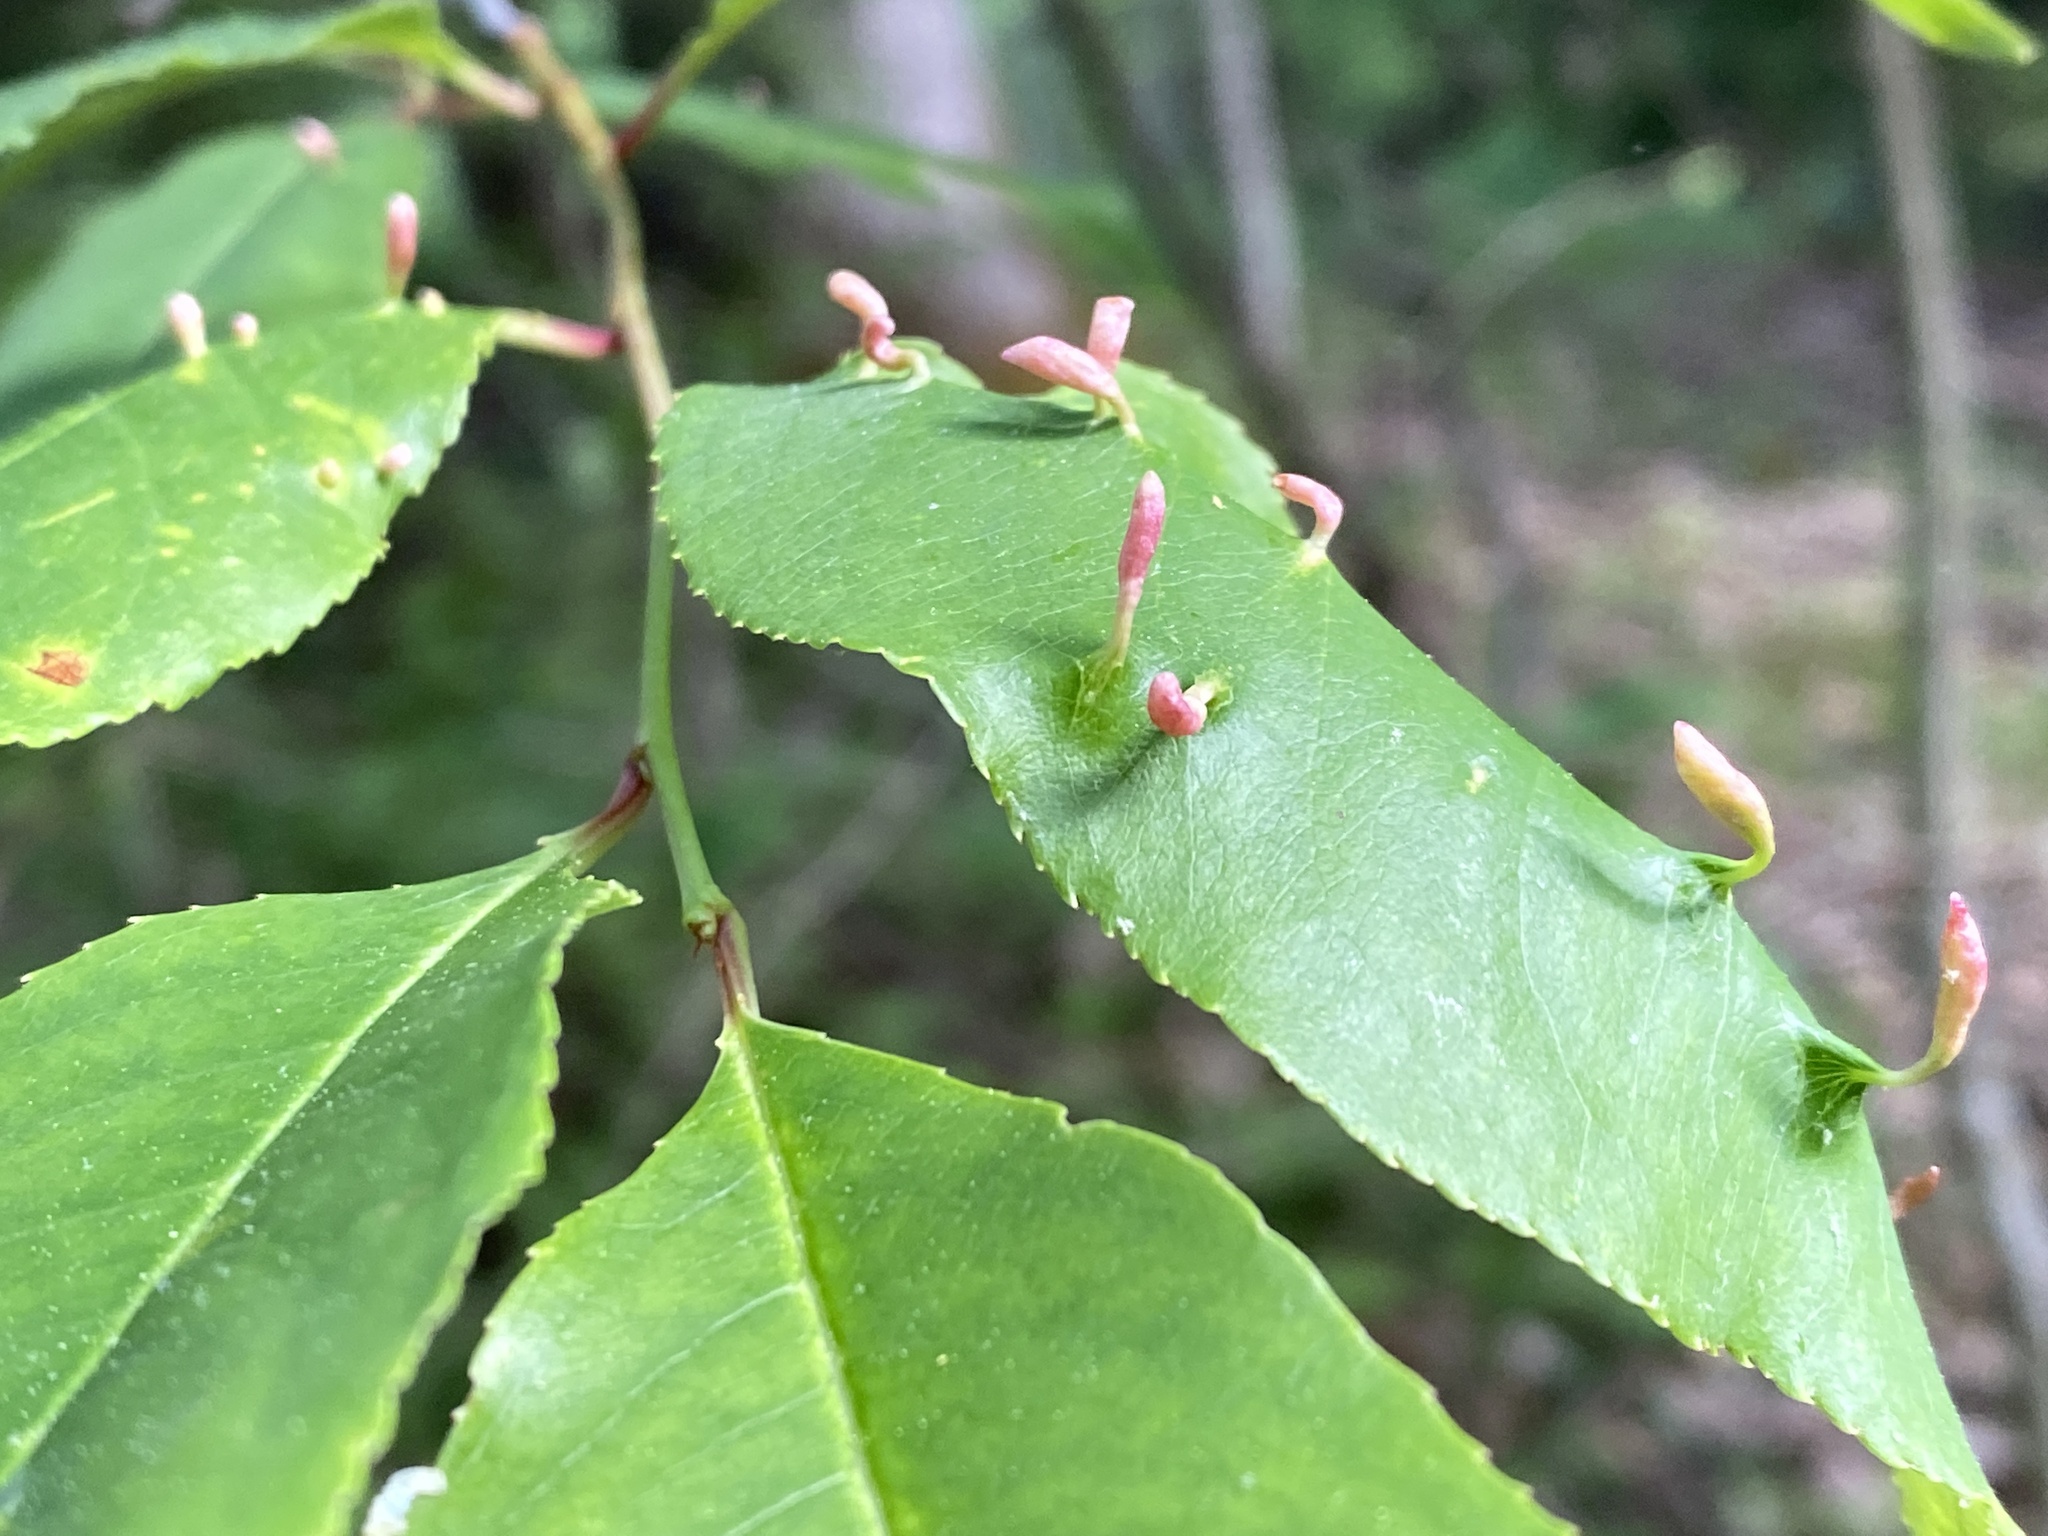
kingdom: Animalia
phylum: Arthropoda
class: Arachnida
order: Trombidiformes
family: Eriophyidae
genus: Eriophyes
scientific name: Eriophyes
